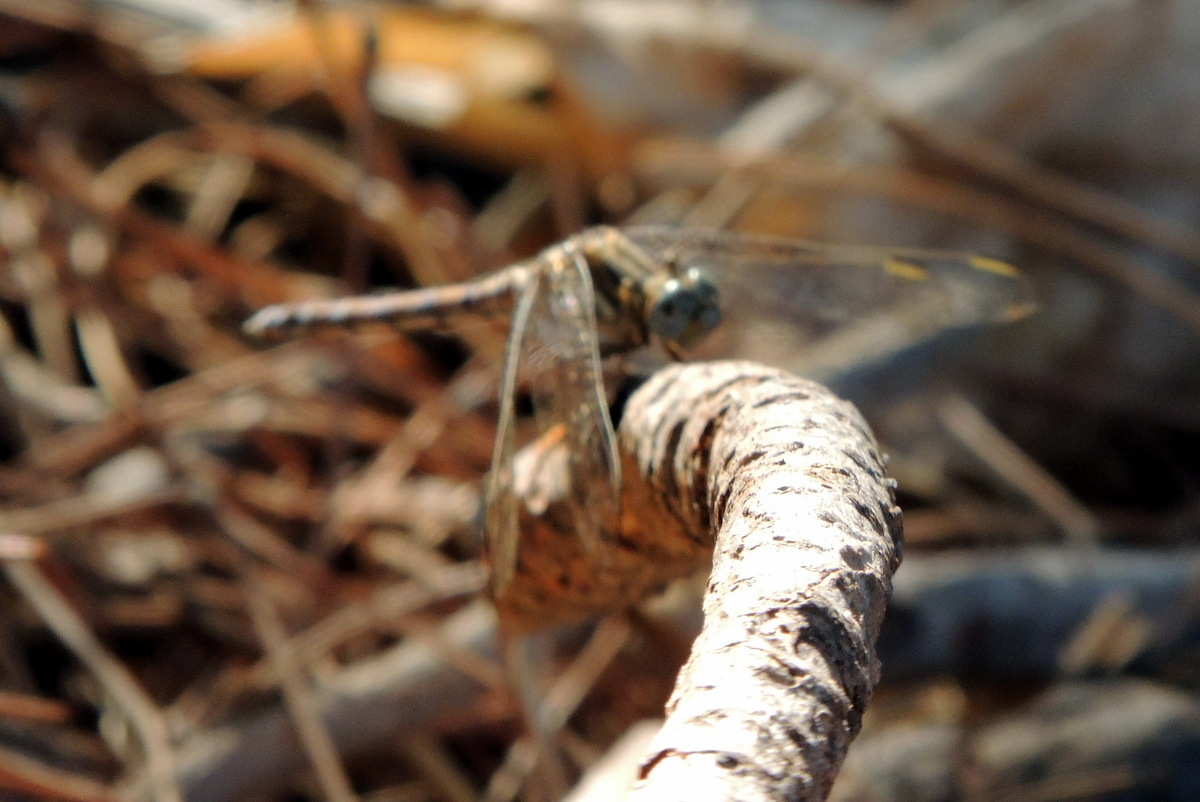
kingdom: Animalia
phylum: Arthropoda
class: Insecta
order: Odonata
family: Libellulidae
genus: Orthetrum
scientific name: Orthetrum chrysostigma
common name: Epaulet skimmer
